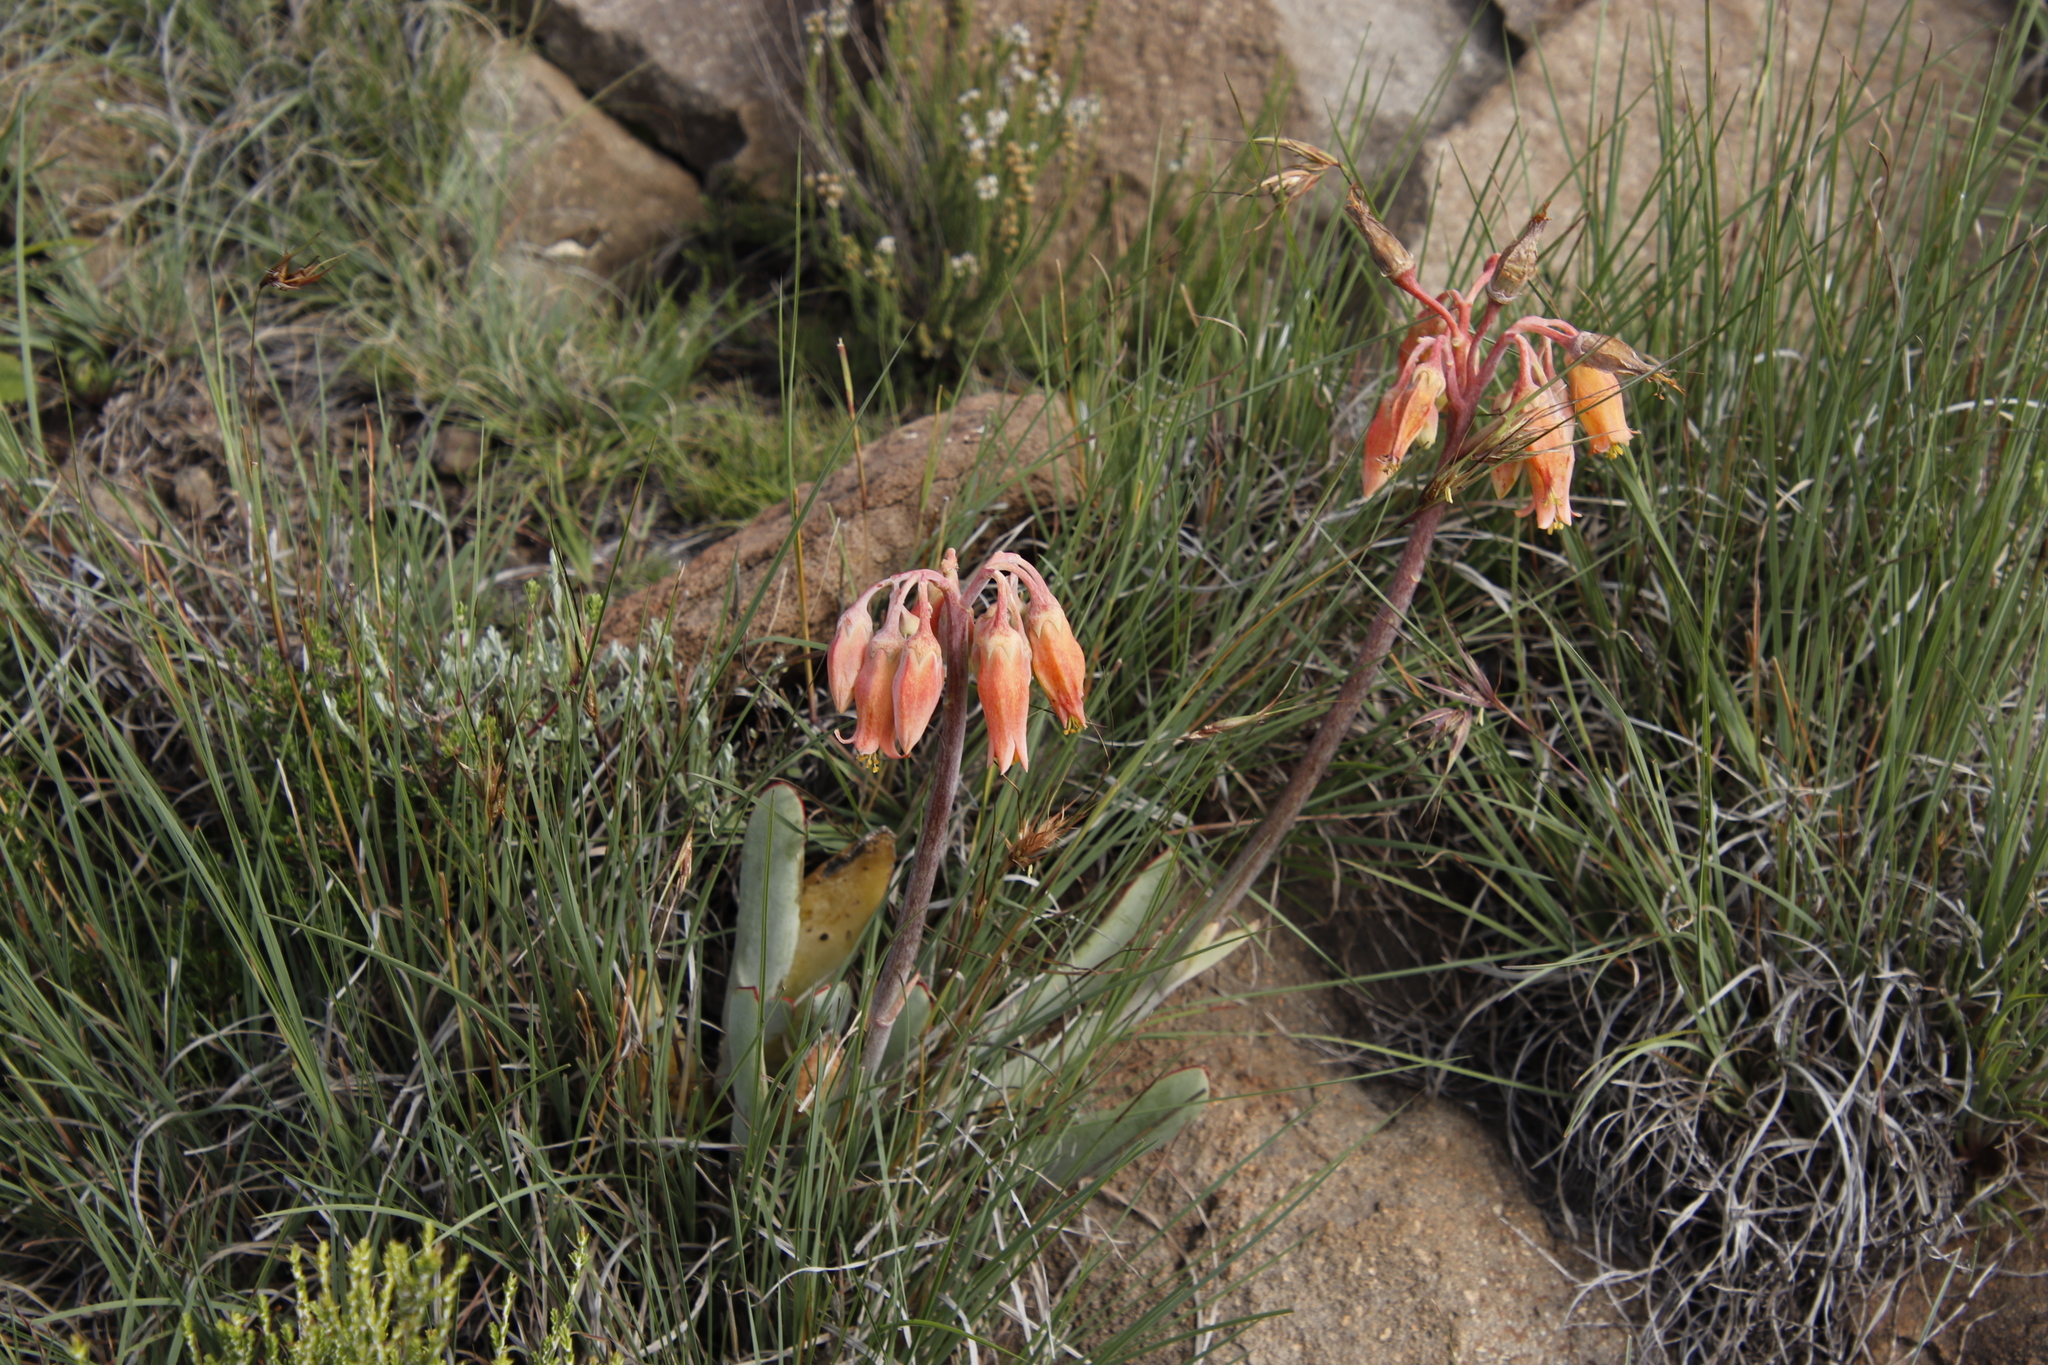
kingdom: Plantae
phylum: Tracheophyta
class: Magnoliopsida
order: Saxifragales
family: Crassulaceae
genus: Cotyledon
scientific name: Cotyledon orbiculata
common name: Pig's ear
